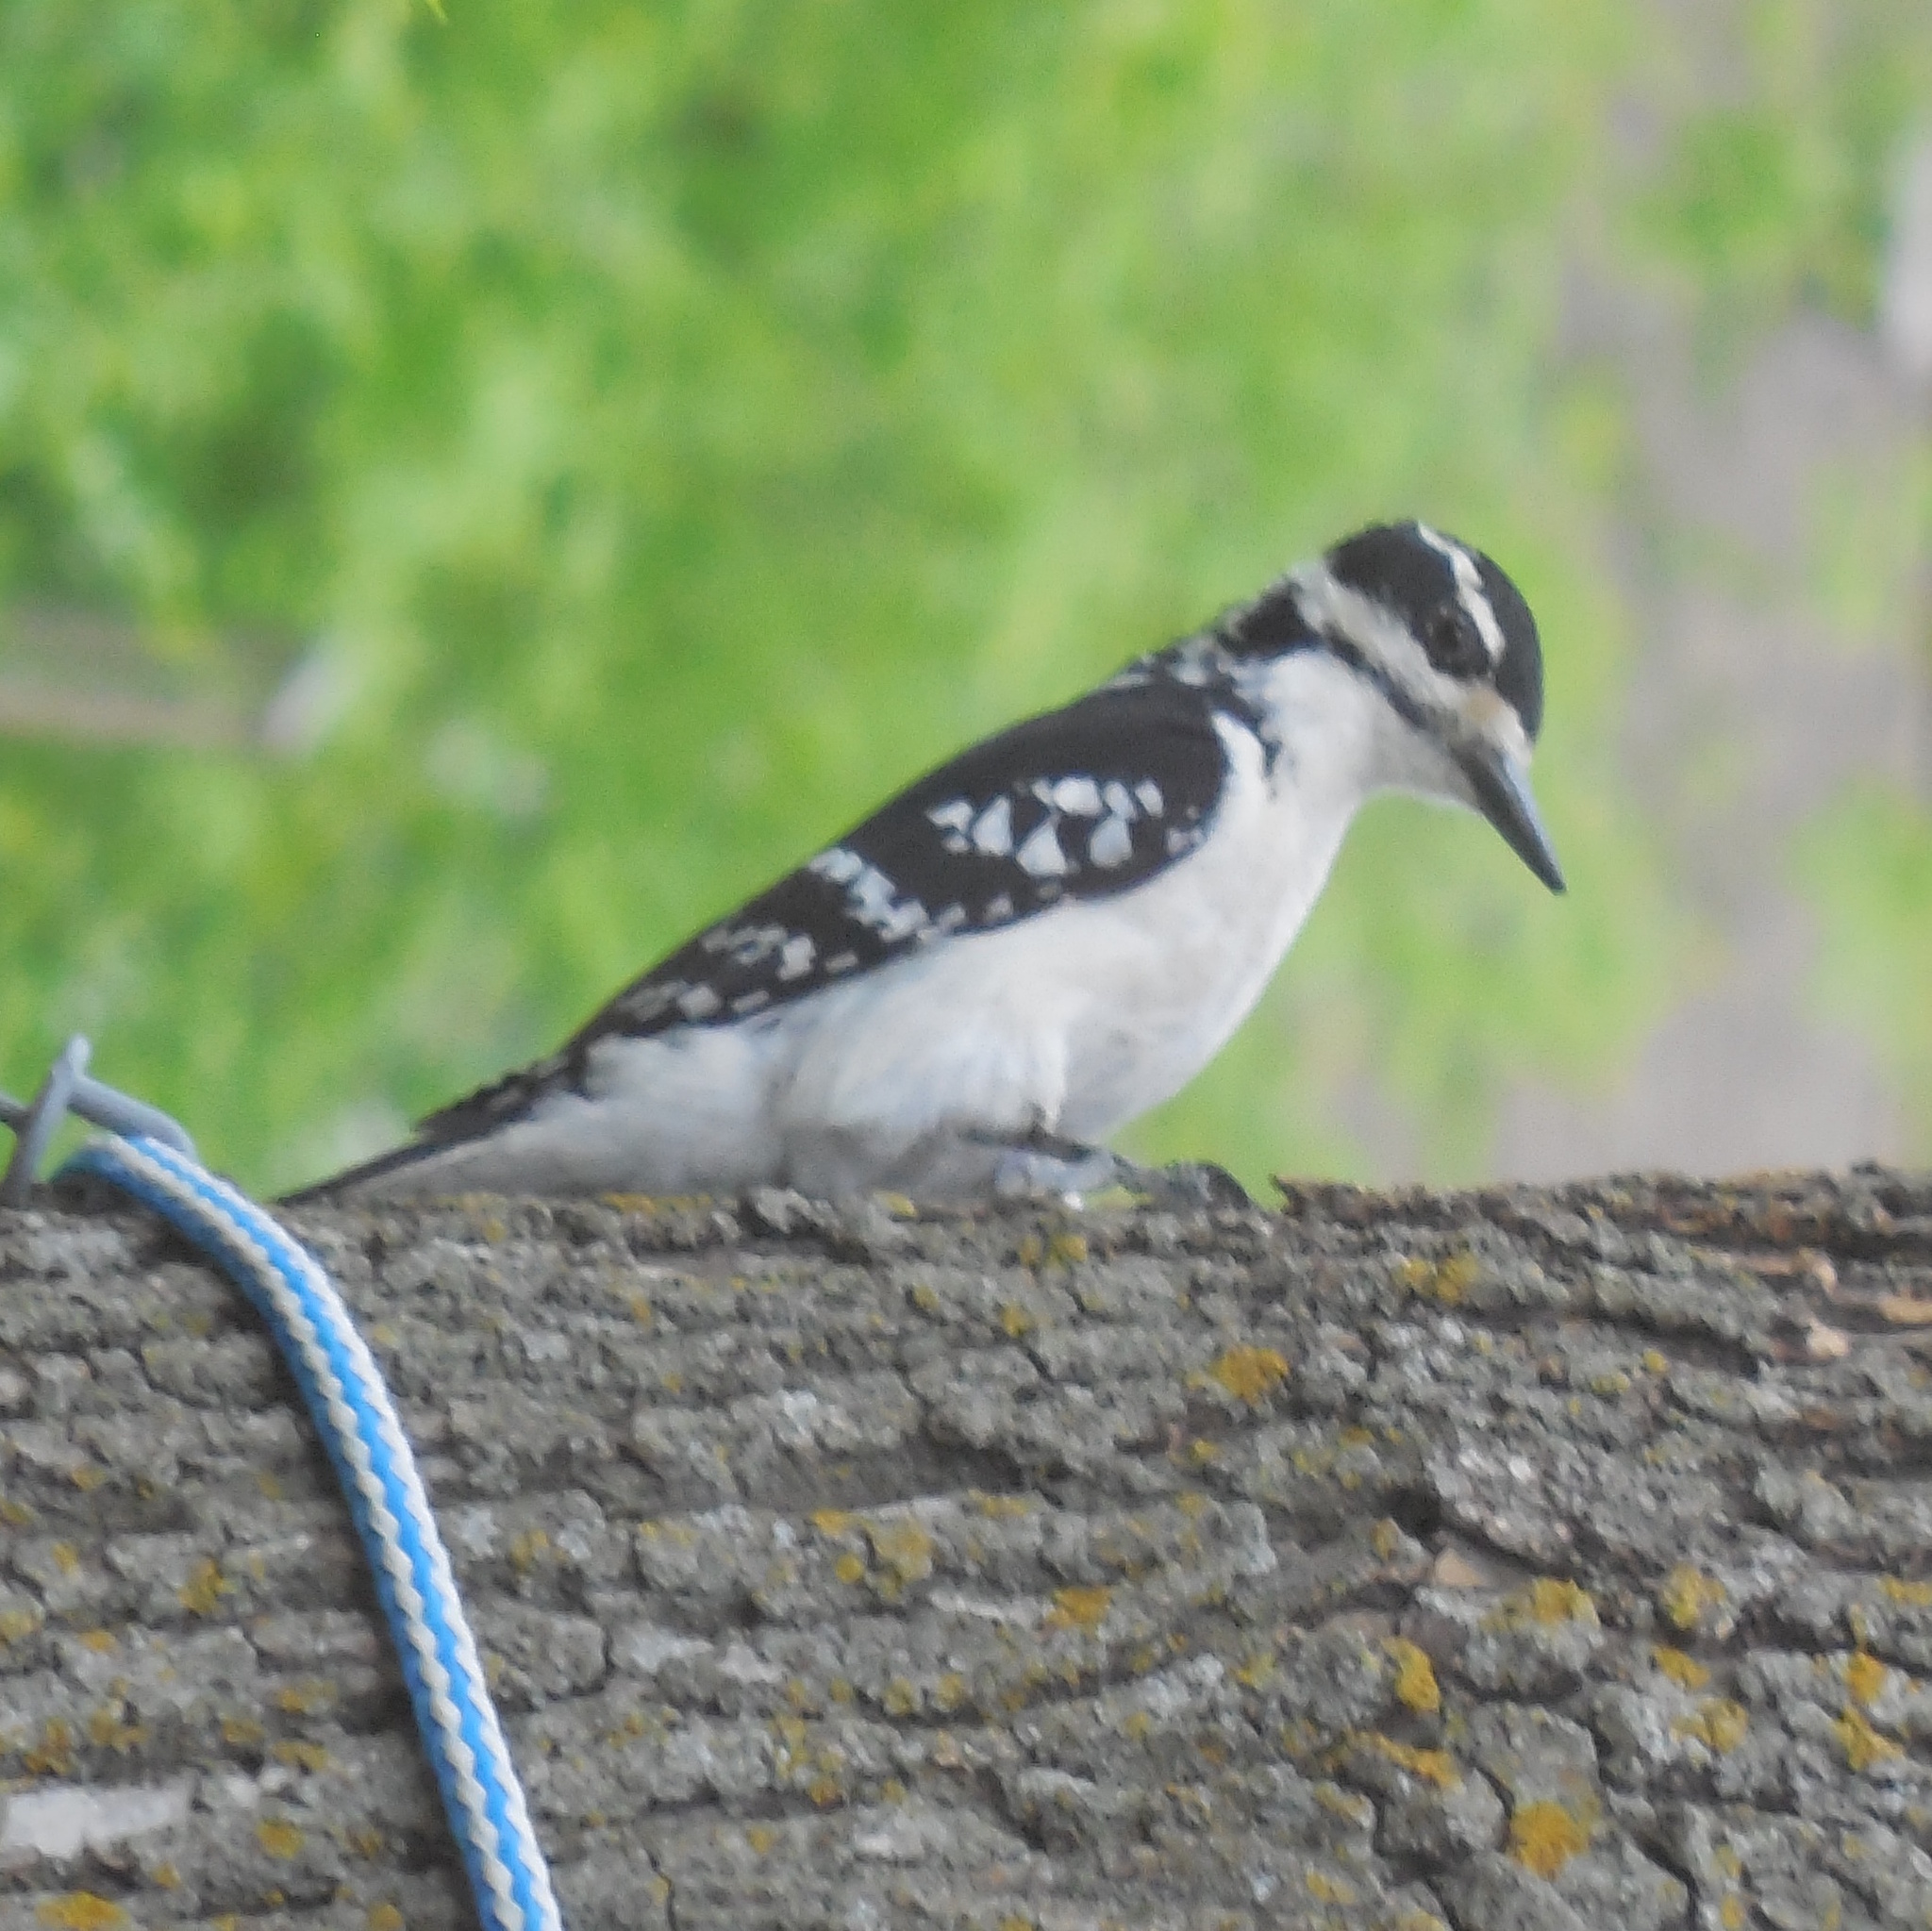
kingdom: Animalia
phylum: Chordata
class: Aves
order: Piciformes
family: Picidae
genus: Leuconotopicus
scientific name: Leuconotopicus villosus
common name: Hairy woodpecker
